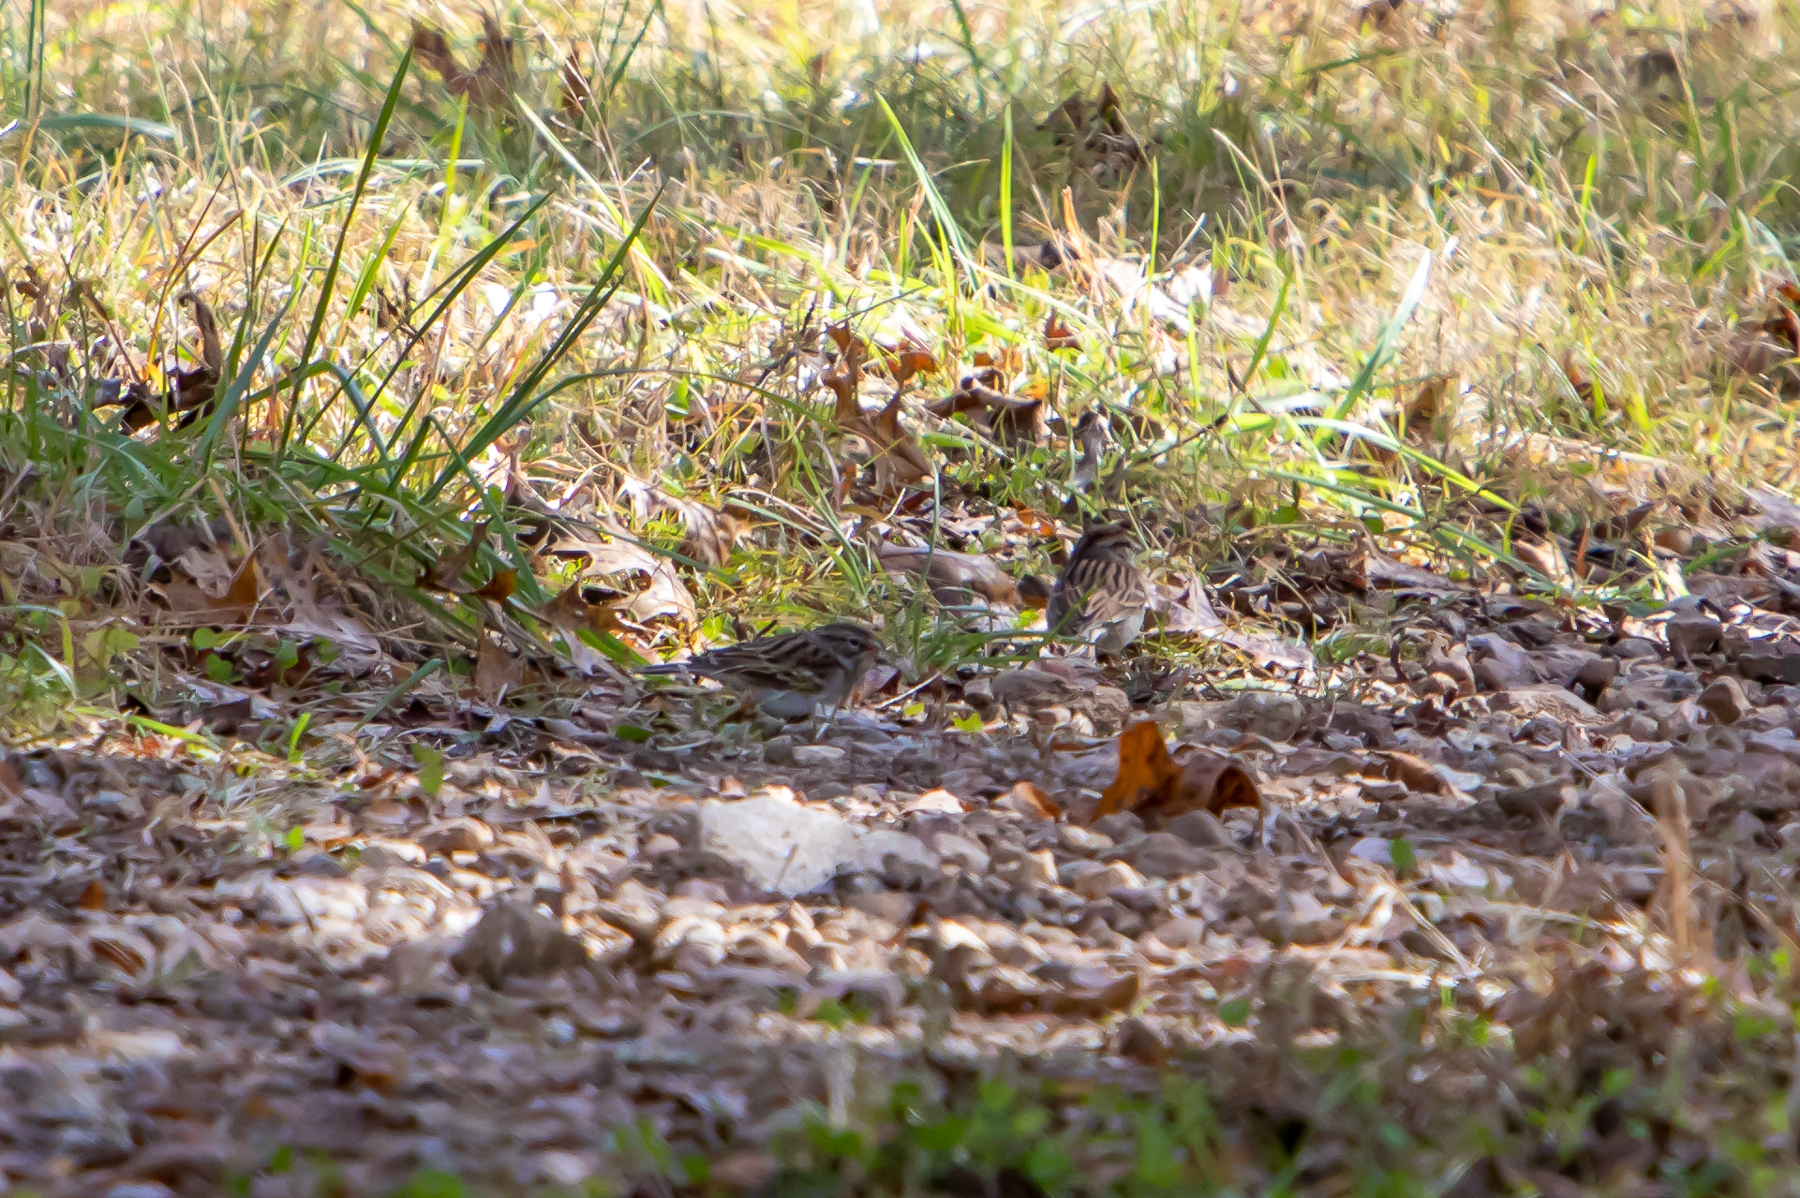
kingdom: Animalia
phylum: Chordata
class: Aves
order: Passeriformes
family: Passerellidae
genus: Spizella
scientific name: Spizella passerina
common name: Chipping sparrow
